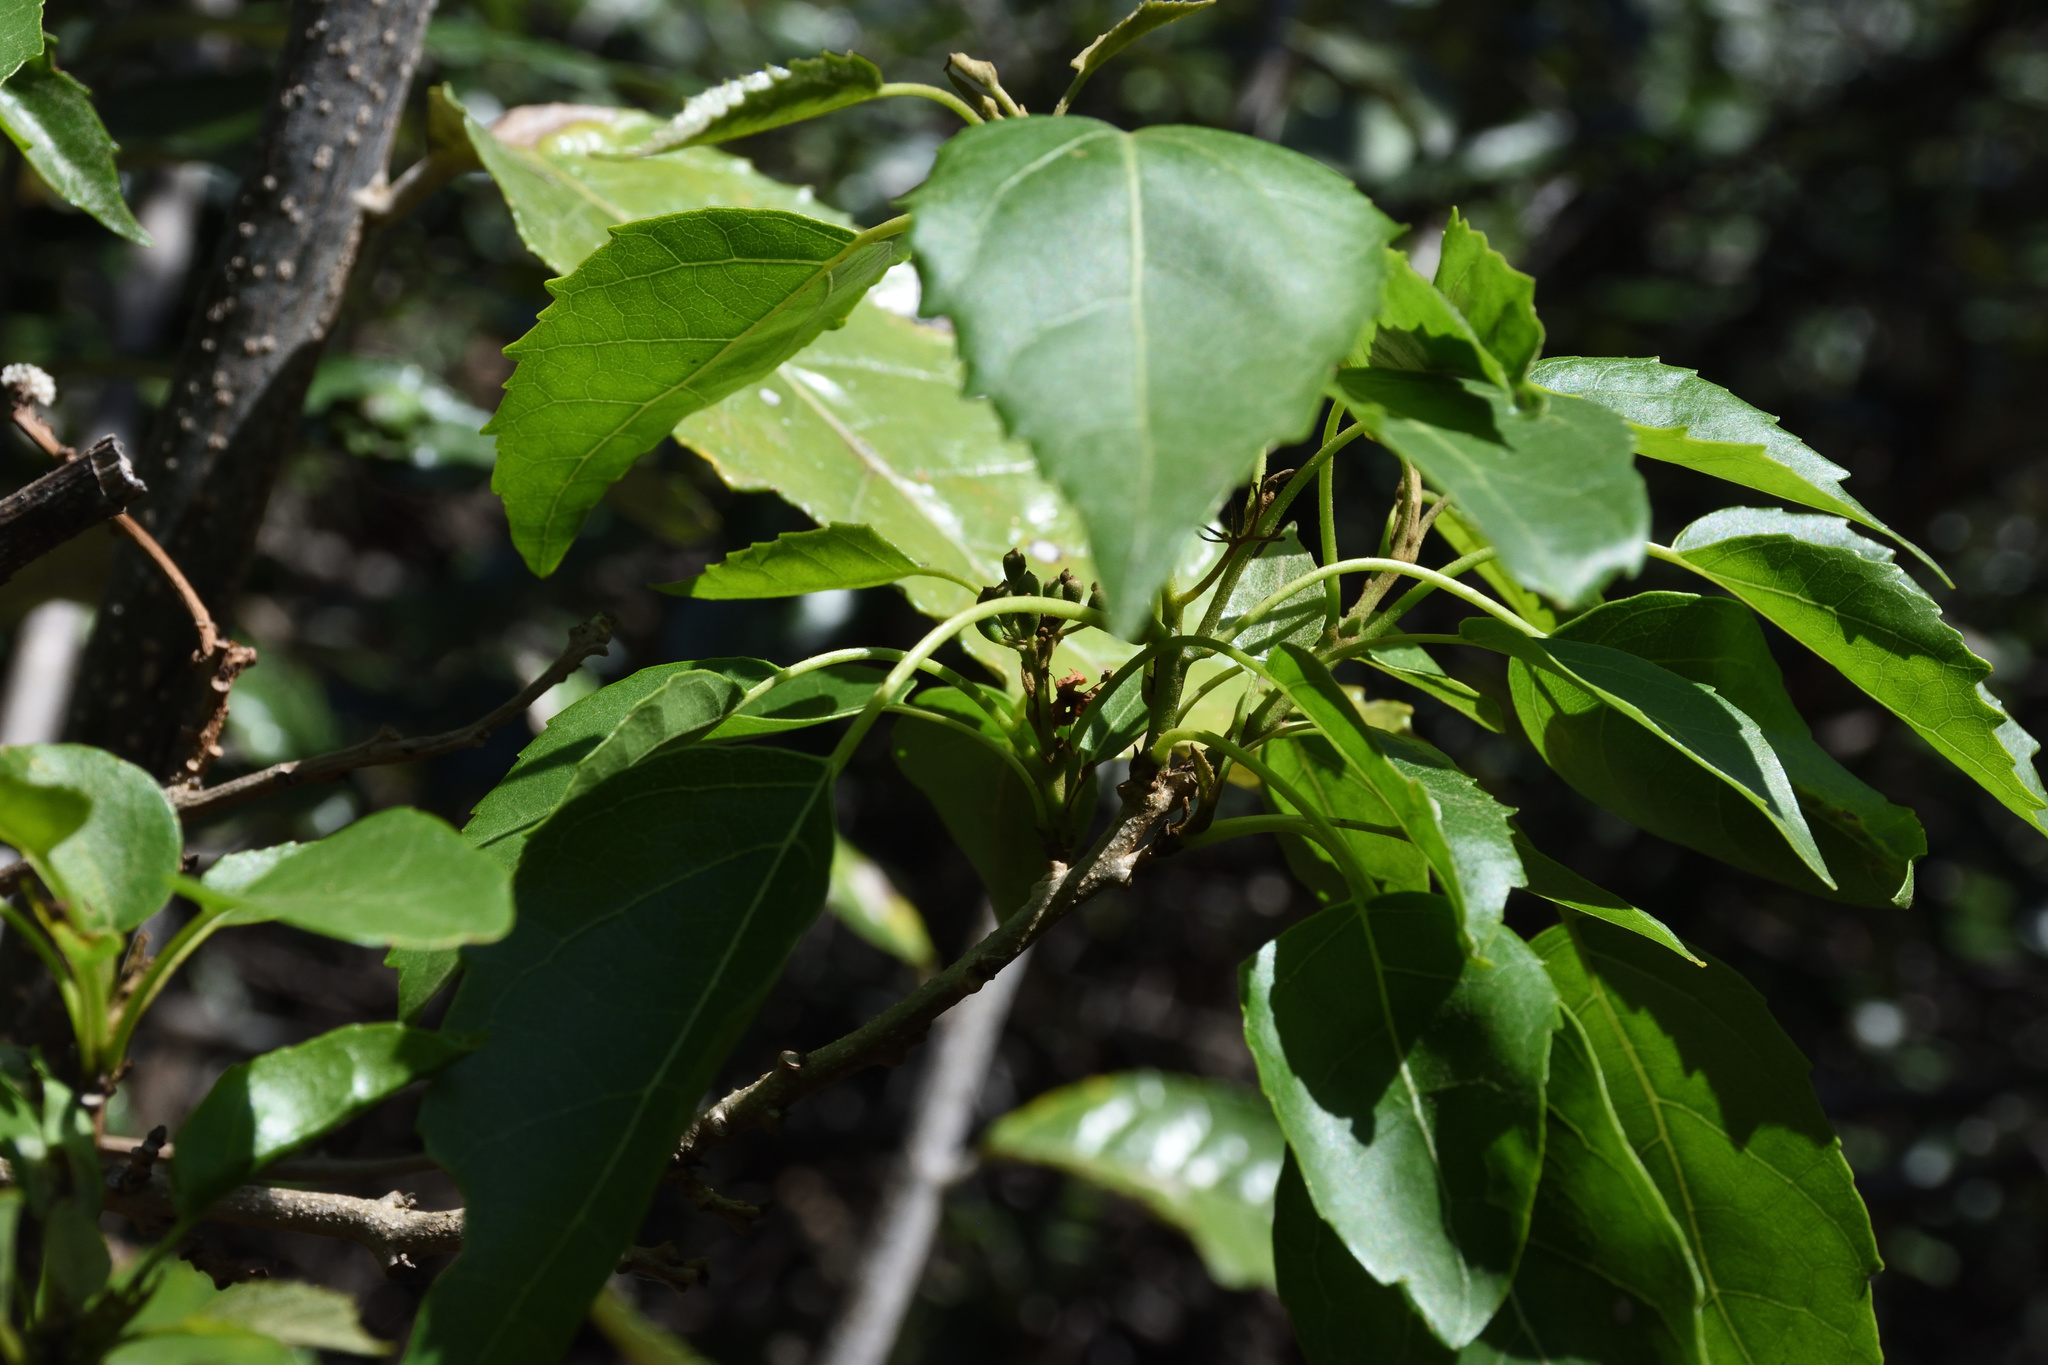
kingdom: Plantae
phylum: Tracheophyta
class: Magnoliopsida
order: Boraginales
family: Cordiaceae
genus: Cordia
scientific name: Cordia caffra
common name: Septee tree
